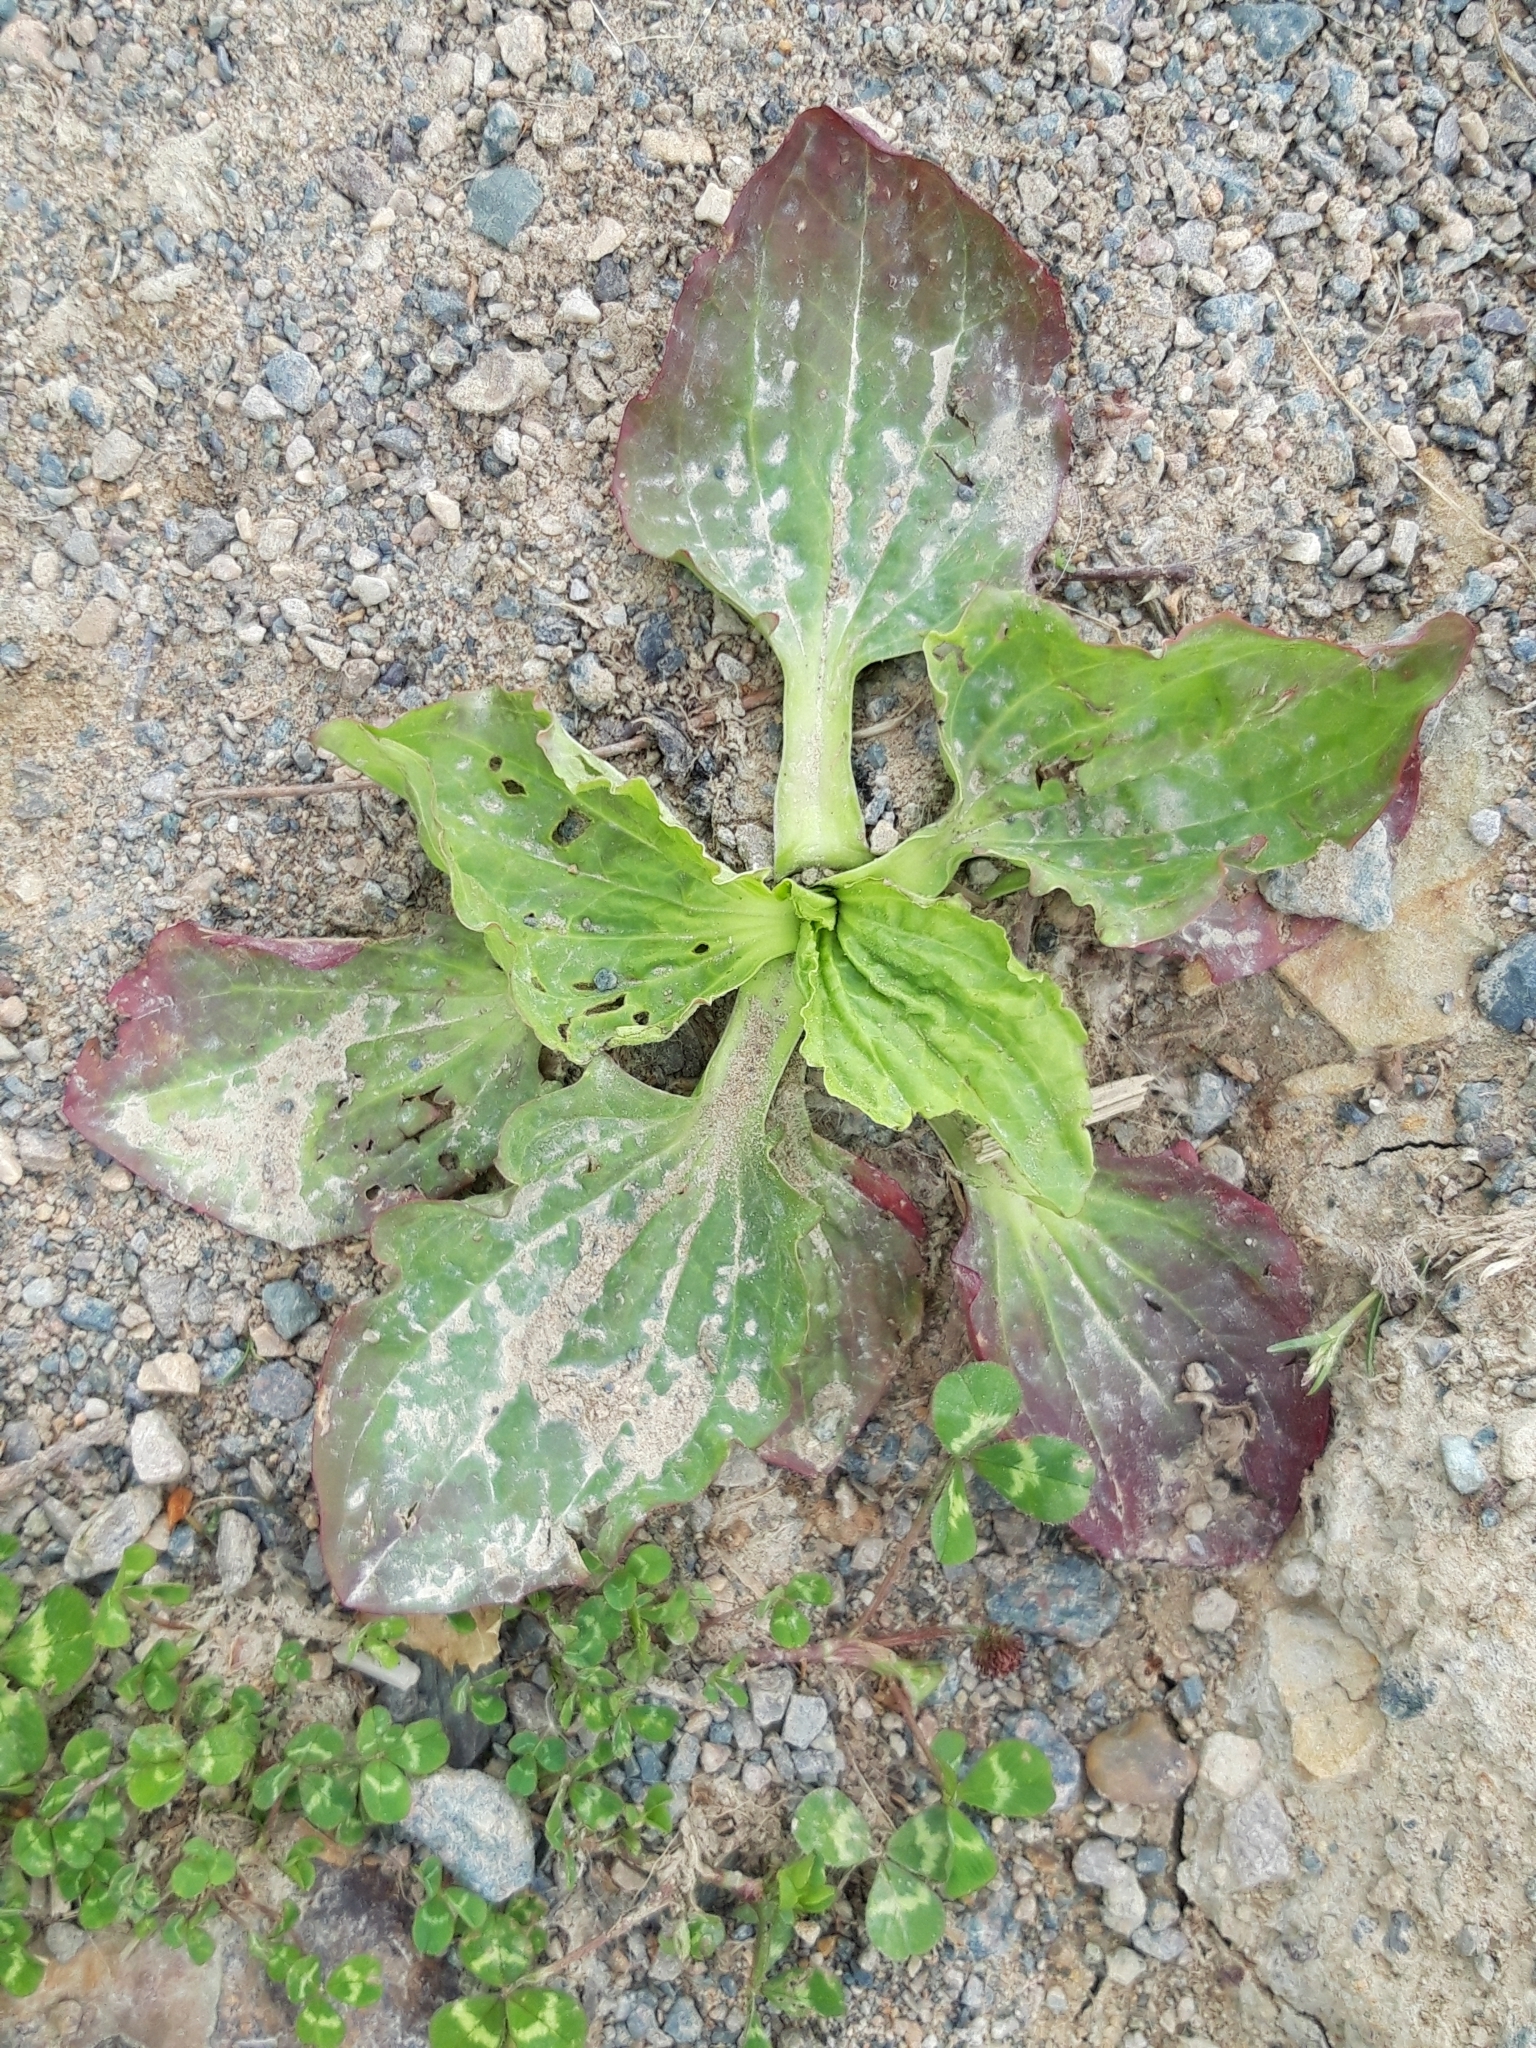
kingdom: Plantae
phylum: Tracheophyta
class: Magnoliopsida
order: Lamiales
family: Plantaginaceae
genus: Plantago
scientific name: Plantago major
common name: Common plantain
